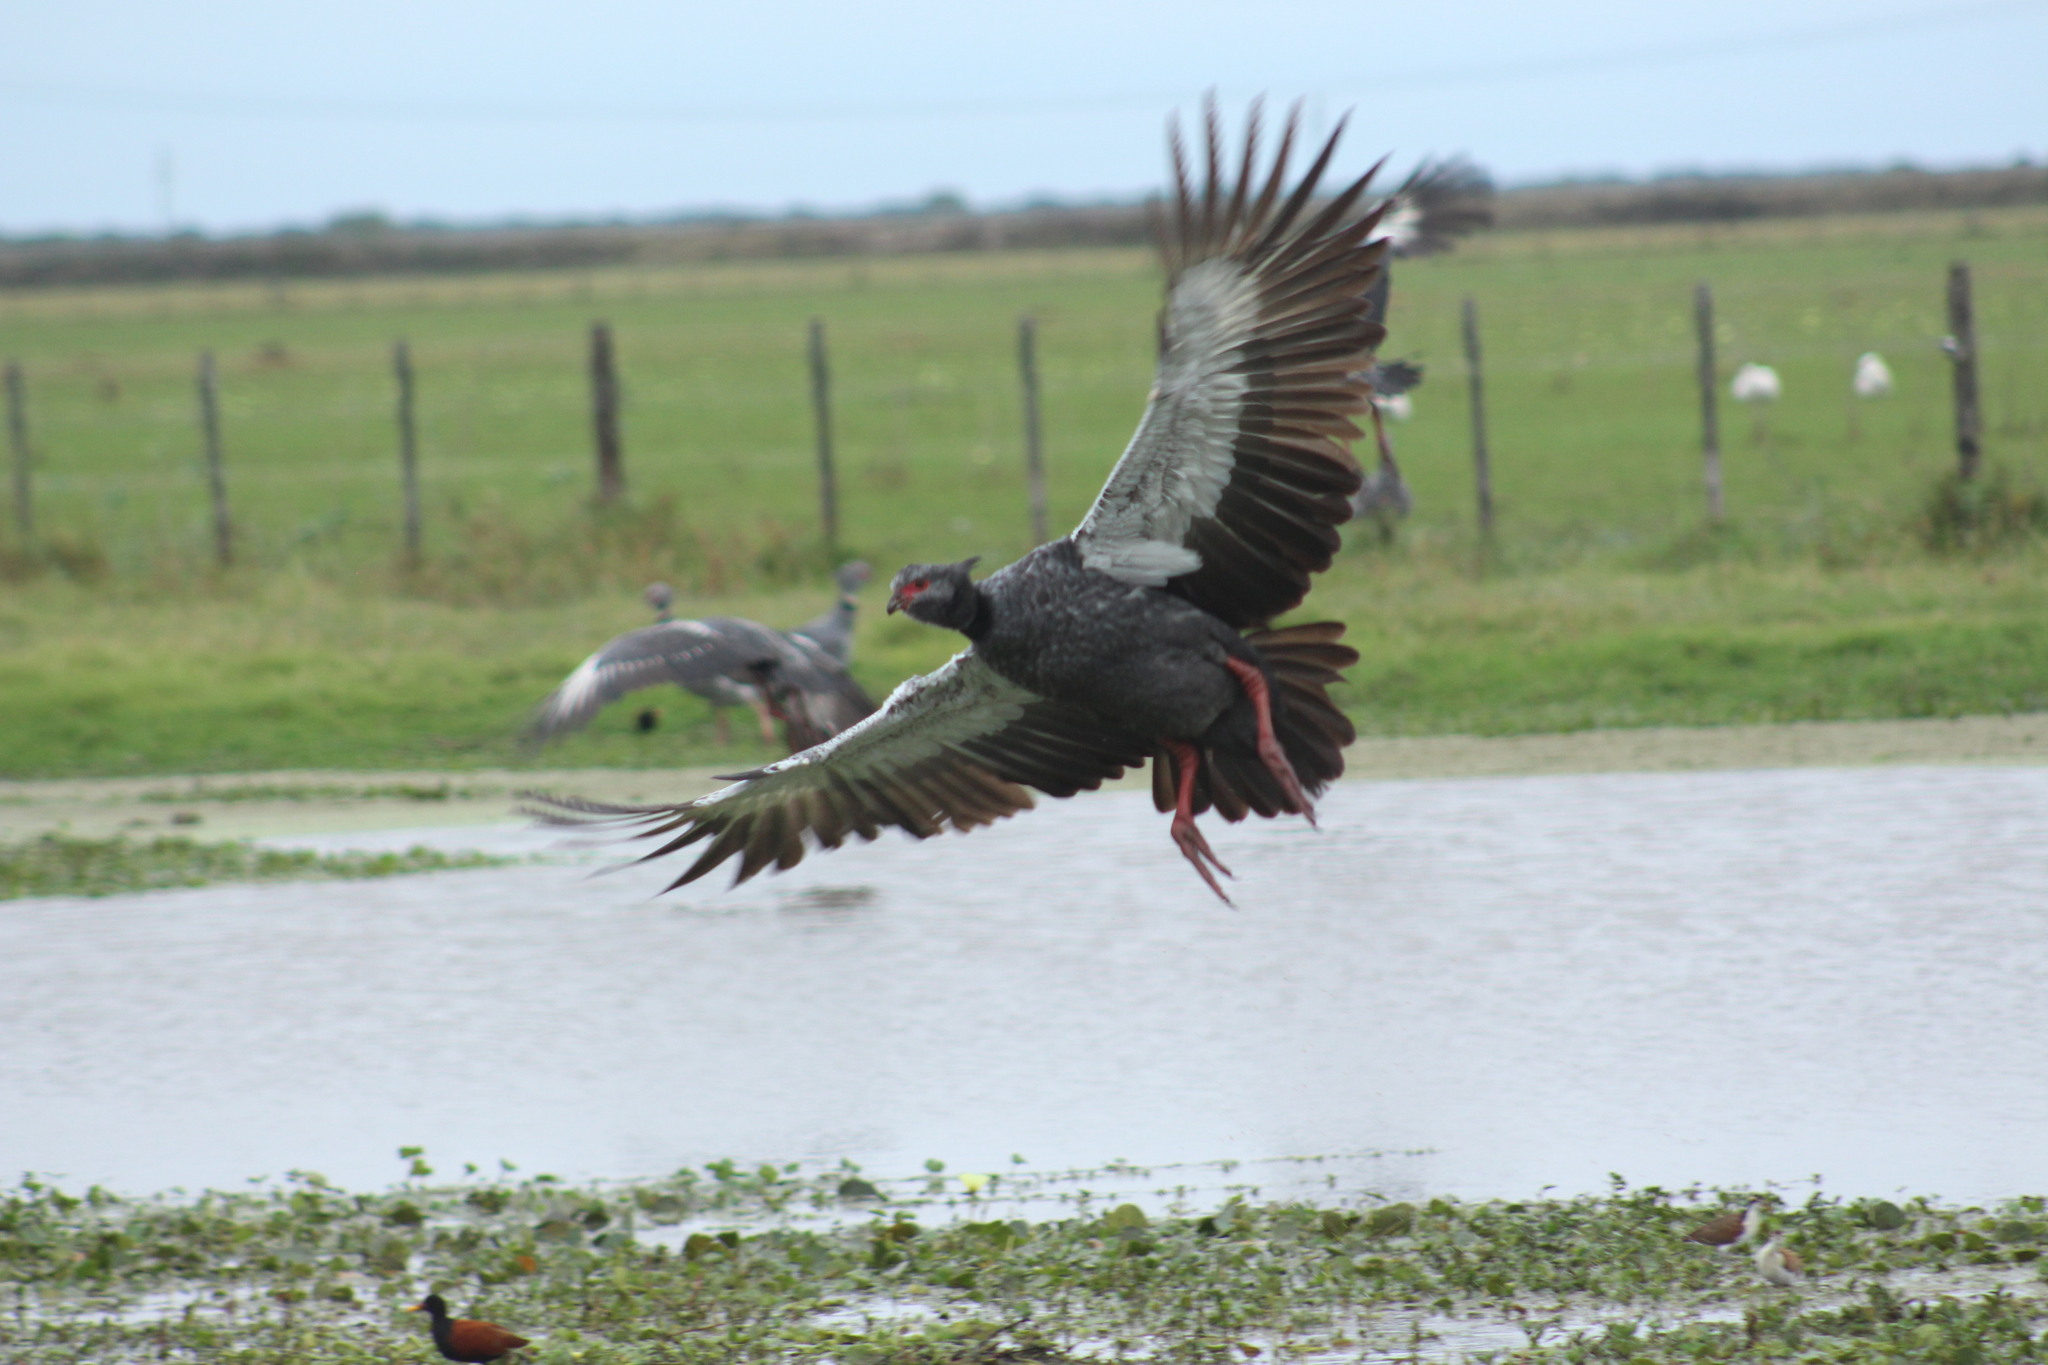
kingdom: Animalia
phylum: Chordata
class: Aves
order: Anseriformes
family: Anhimidae
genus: Chauna
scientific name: Chauna torquata
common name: Southern screamer
